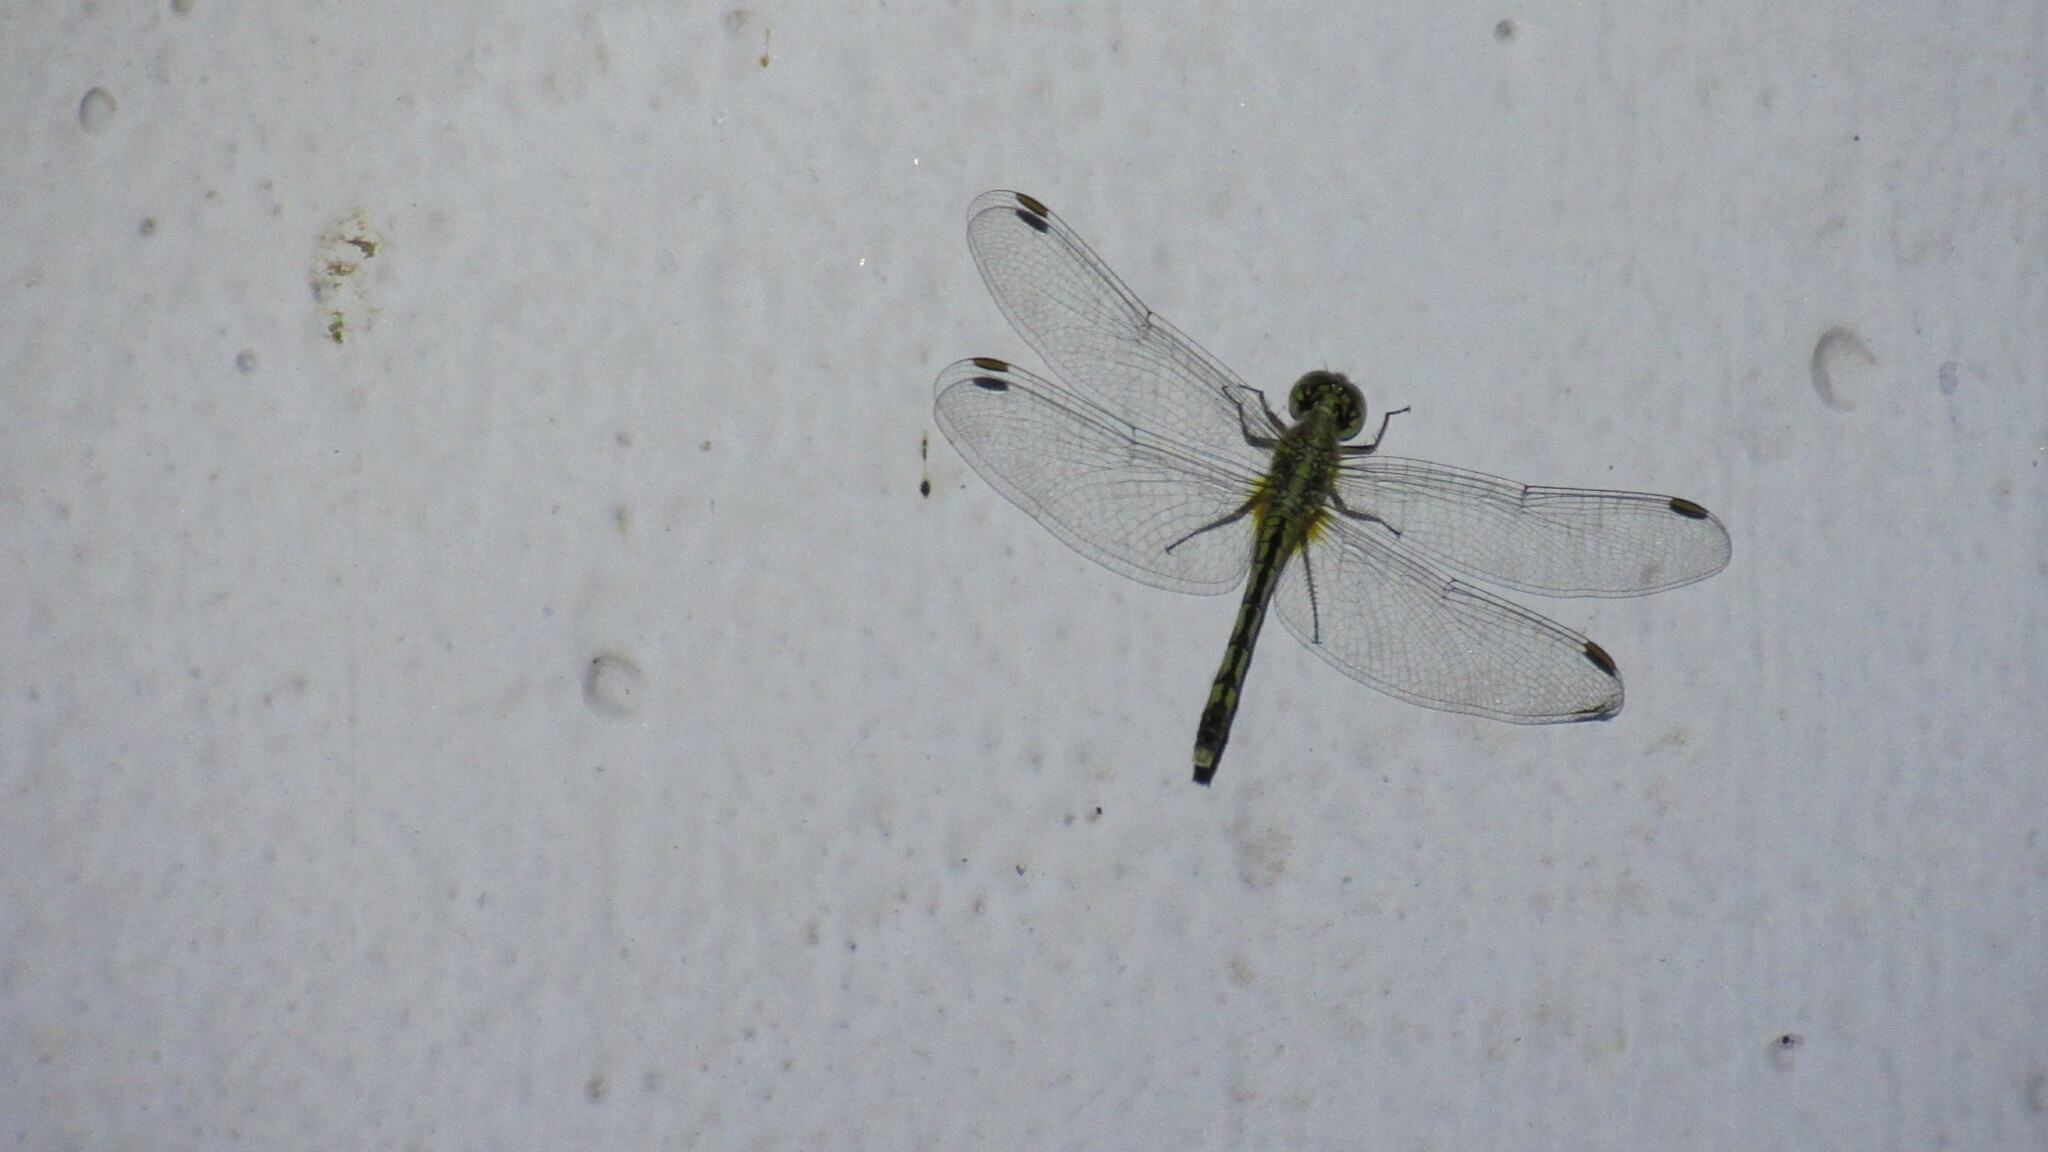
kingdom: Animalia
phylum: Arthropoda
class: Insecta
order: Odonata
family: Libellulidae
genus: Diplacodes
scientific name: Diplacodes trivialis
